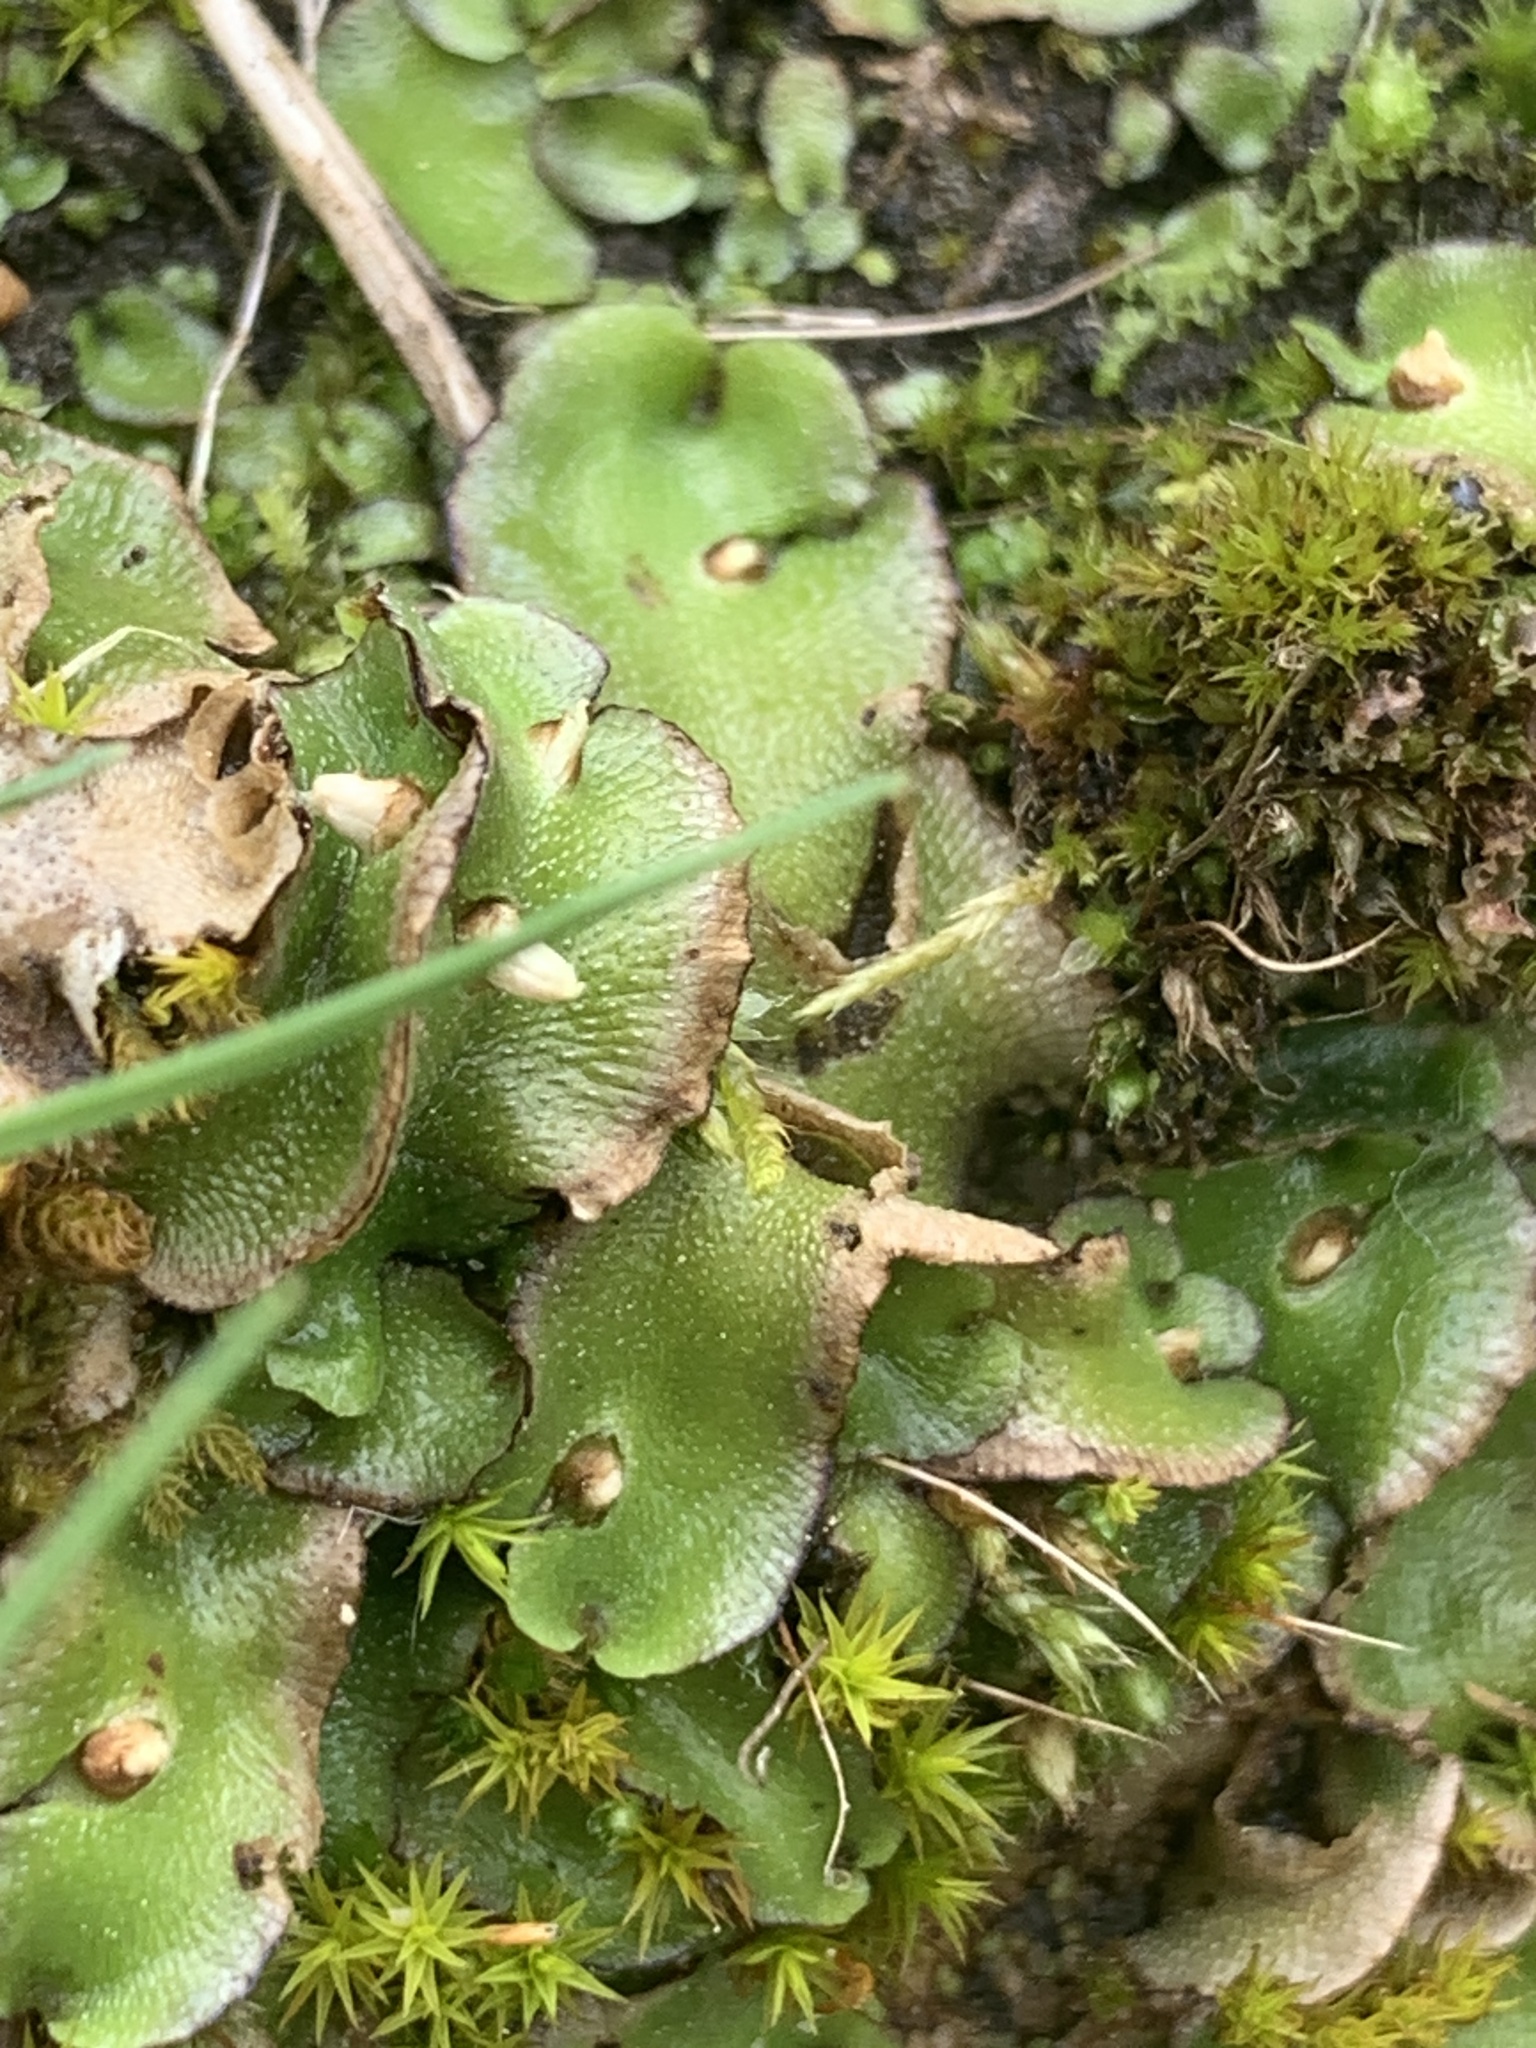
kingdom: Plantae
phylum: Marchantiophyta
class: Marchantiopsida
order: Lunulariales
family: Lunulariaceae
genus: Lunularia
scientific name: Lunularia cruciata
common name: Crescent-cup liverwort
